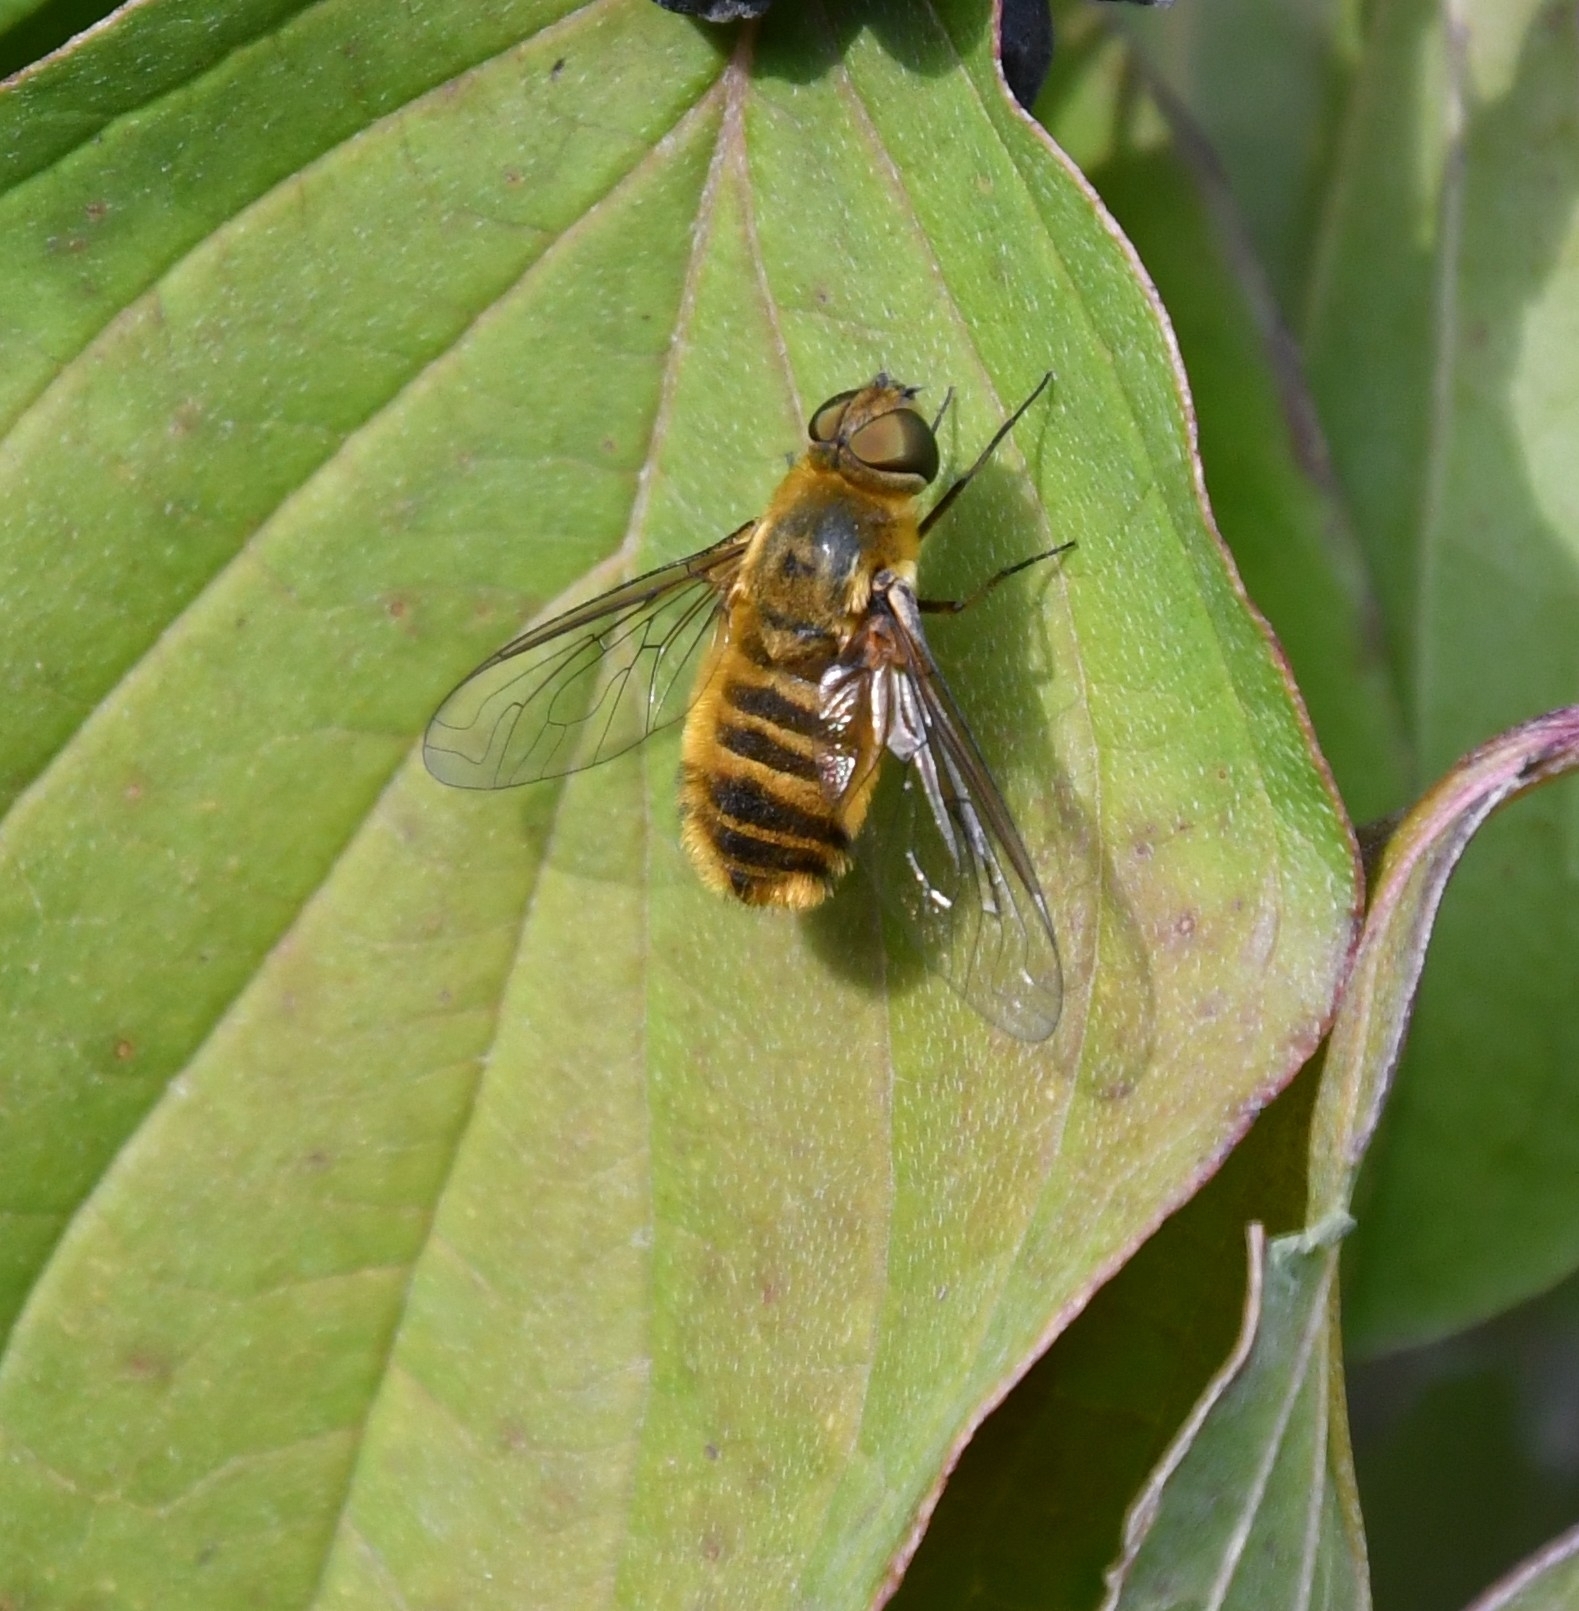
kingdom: Animalia
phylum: Arthropoda
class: Insecta
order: Diptera
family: Bombyliidae
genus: Villa
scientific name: Villa hottentotta
